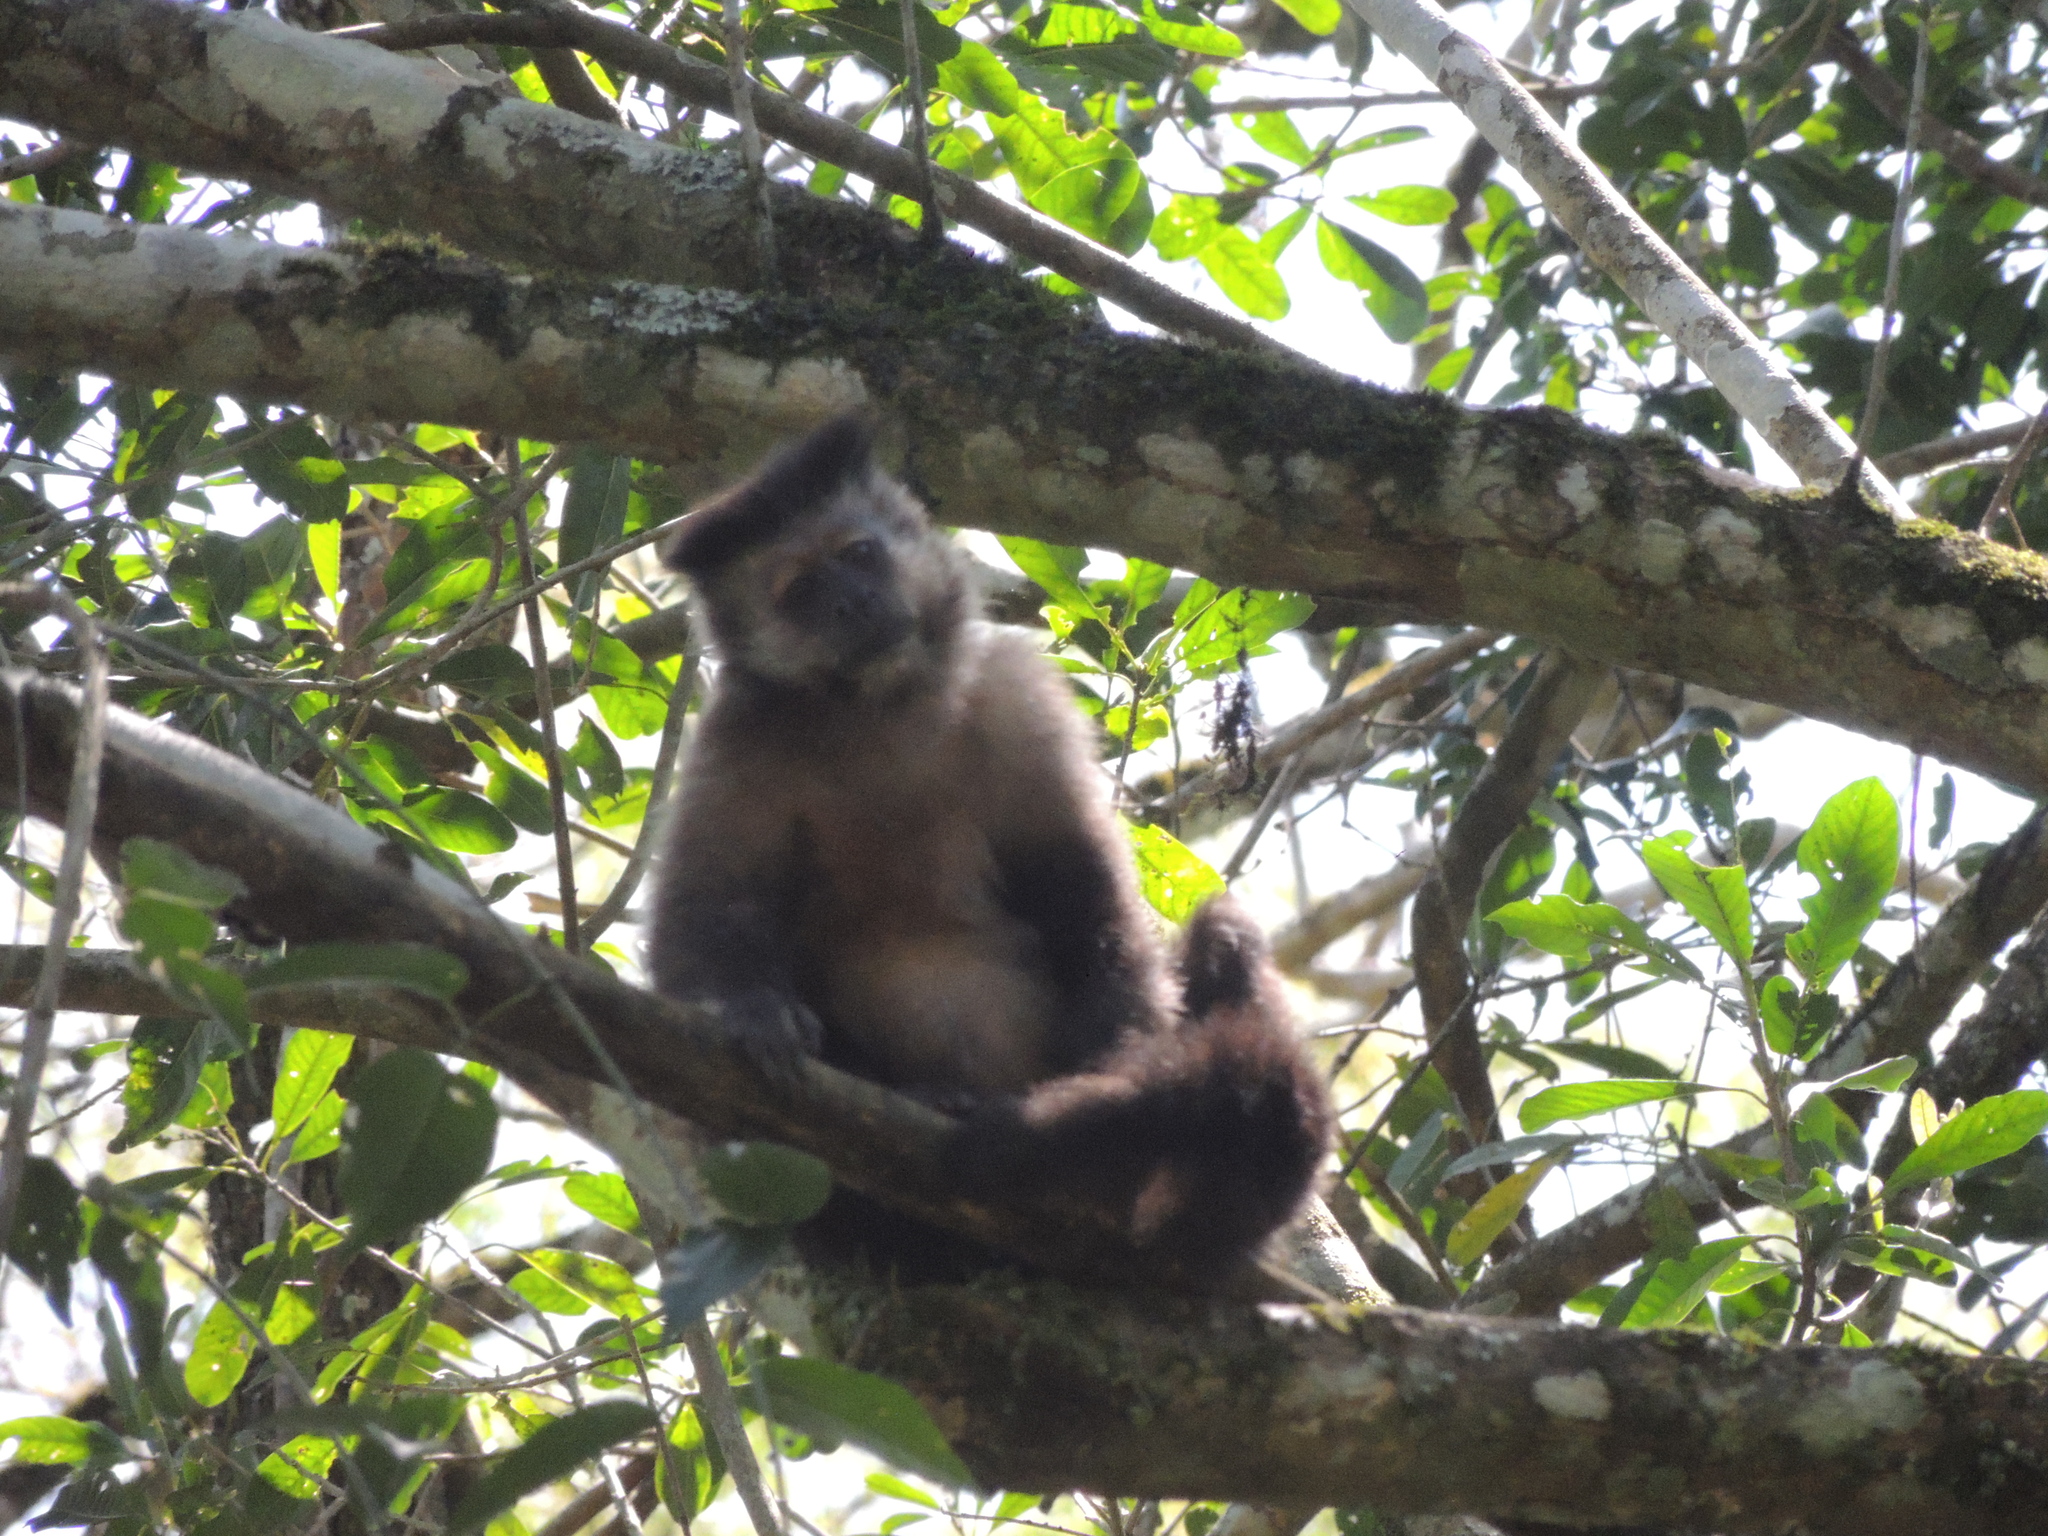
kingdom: Animalia
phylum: Chordata
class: Mammalia
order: Primates
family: Cebidae
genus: Sapajus
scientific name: Sapajus nigritus
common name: Black capuchin
